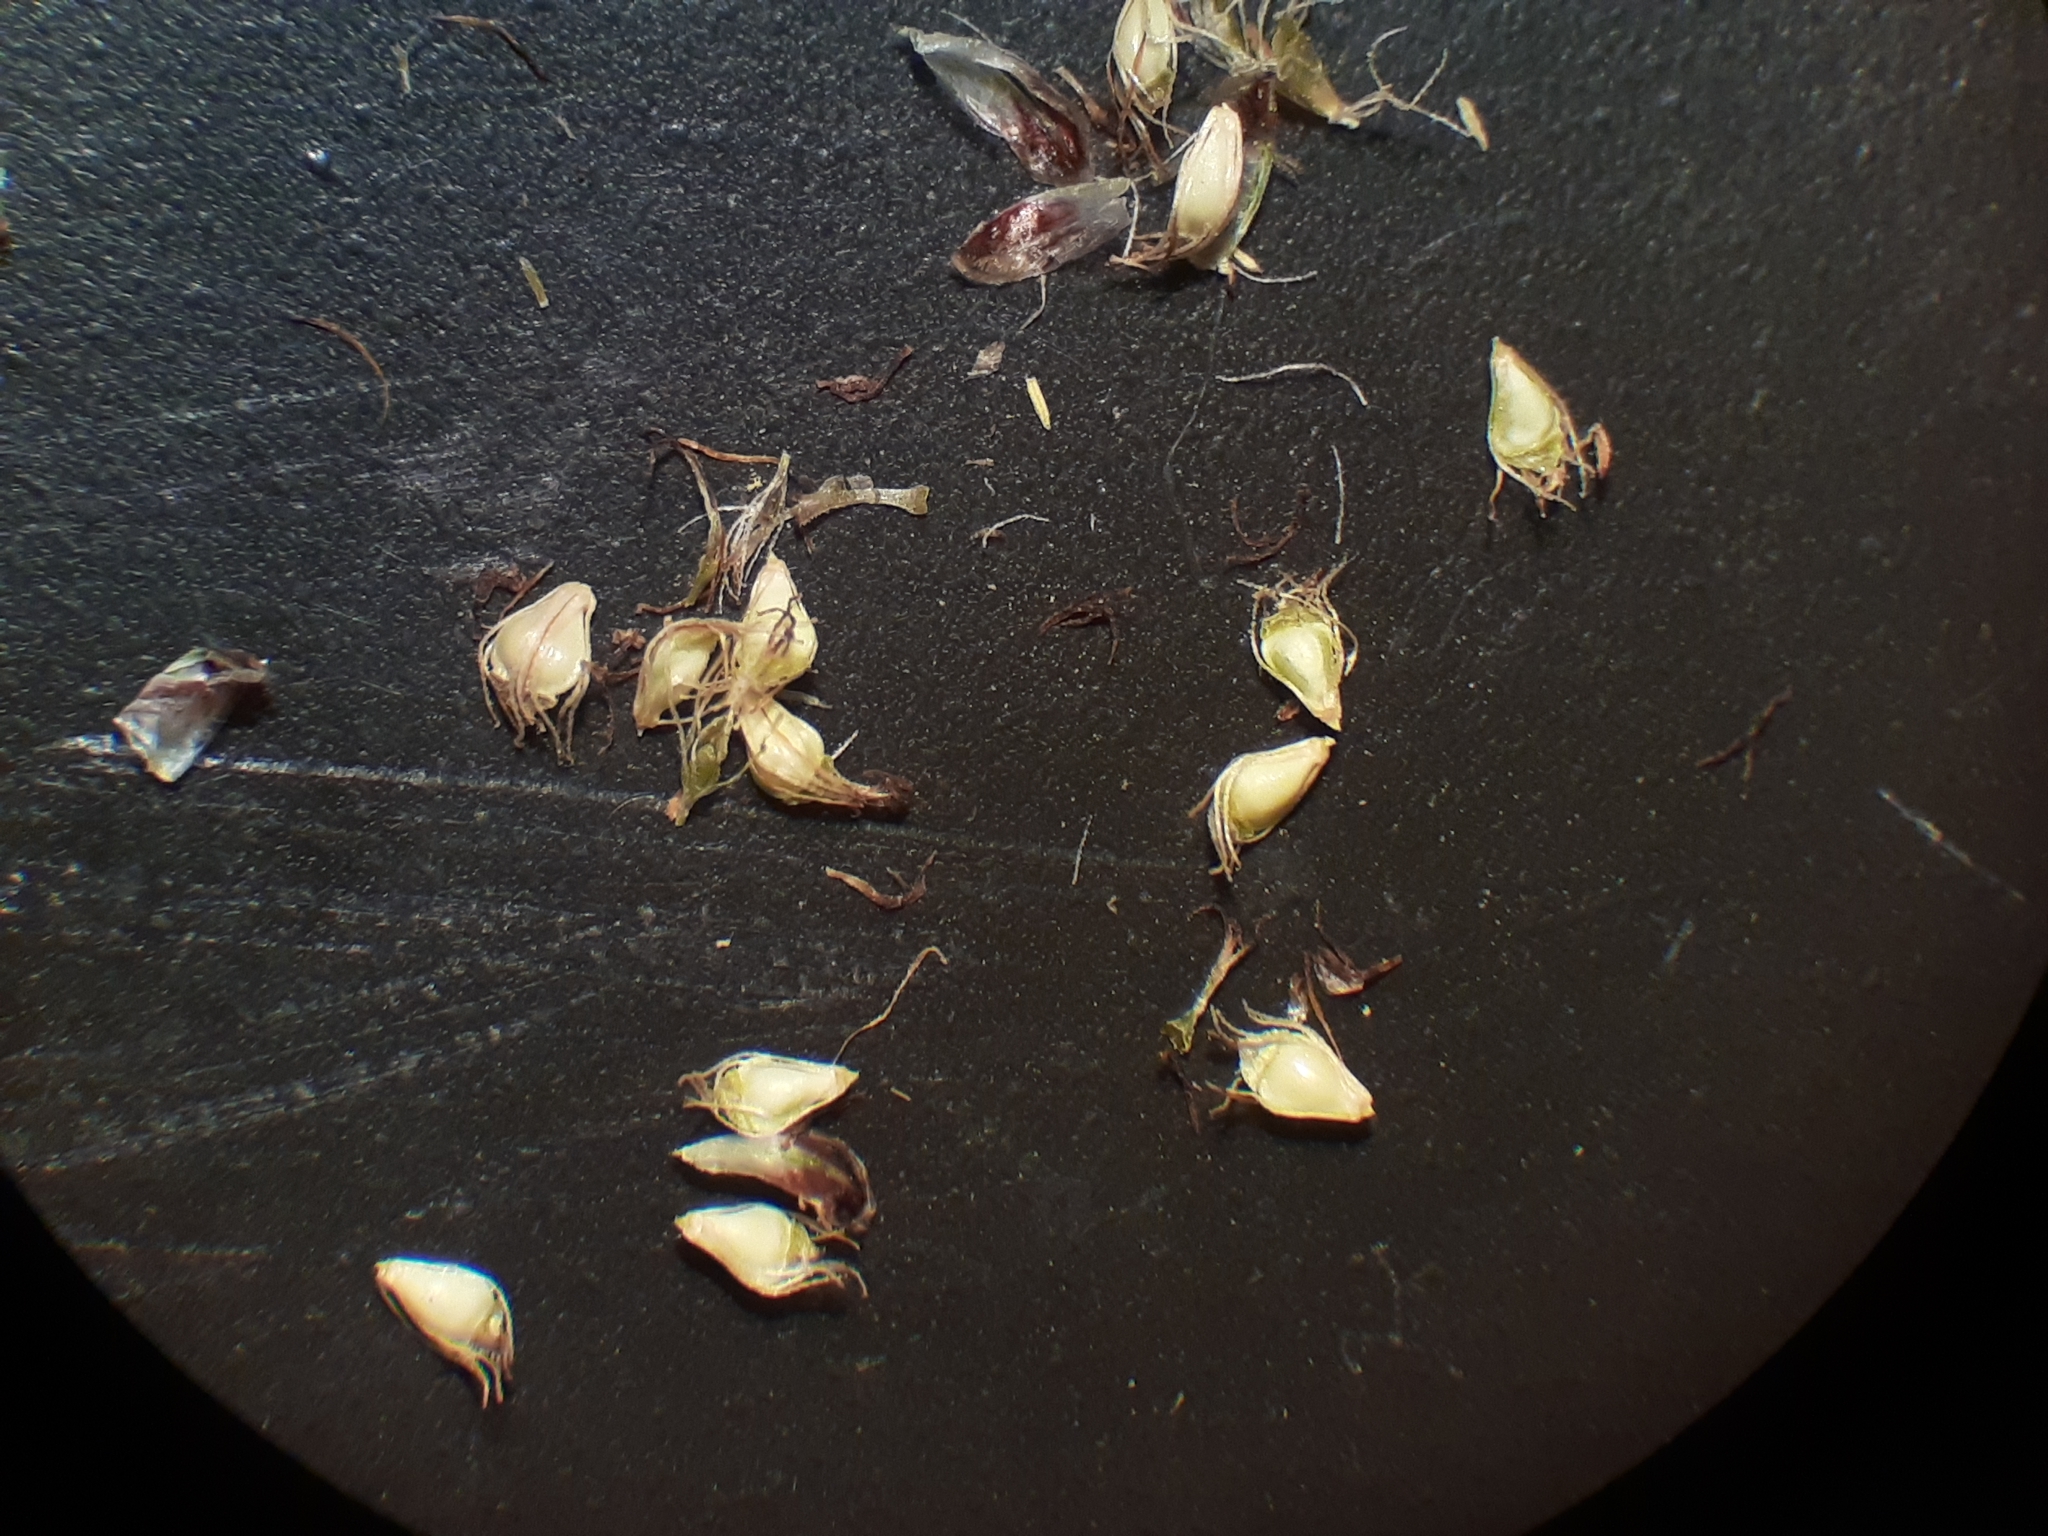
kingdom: Plantae
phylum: Tracheophyta
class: Liliopsida
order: Poales
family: Cyperaceae
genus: Eleocharis
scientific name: Eleocharis obtusa
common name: Blunt spikerush
